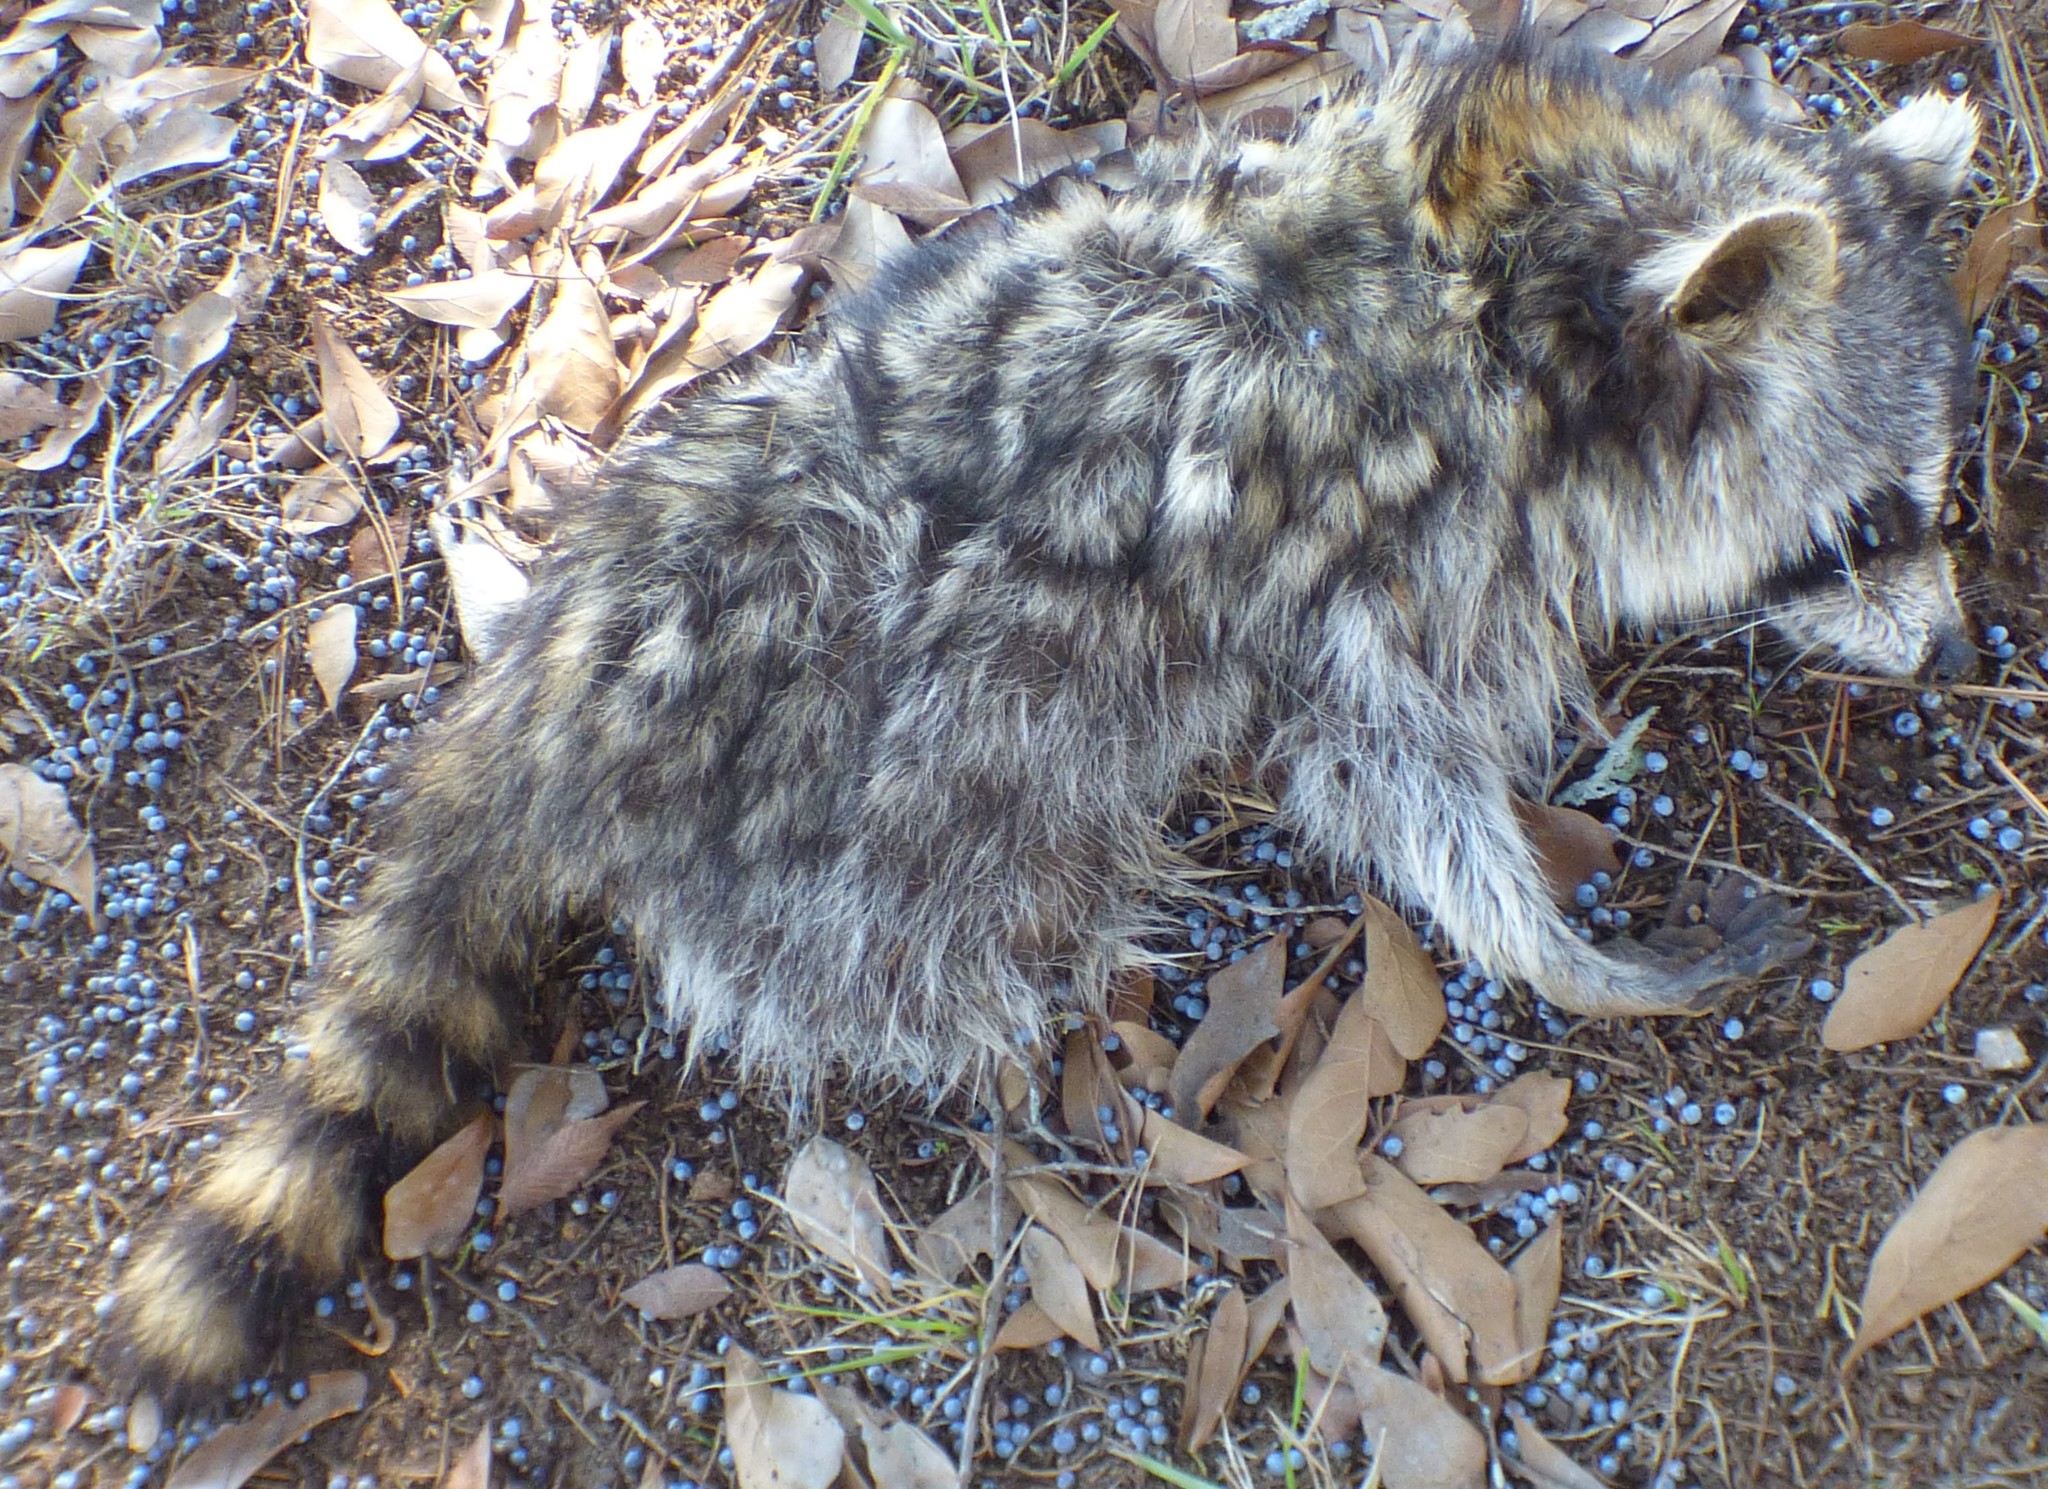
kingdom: Animalia
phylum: Chordata
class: Mammalia
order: Carnivora
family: Procyonidae
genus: Procyon
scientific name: Procyon lotor
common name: Raccoon
